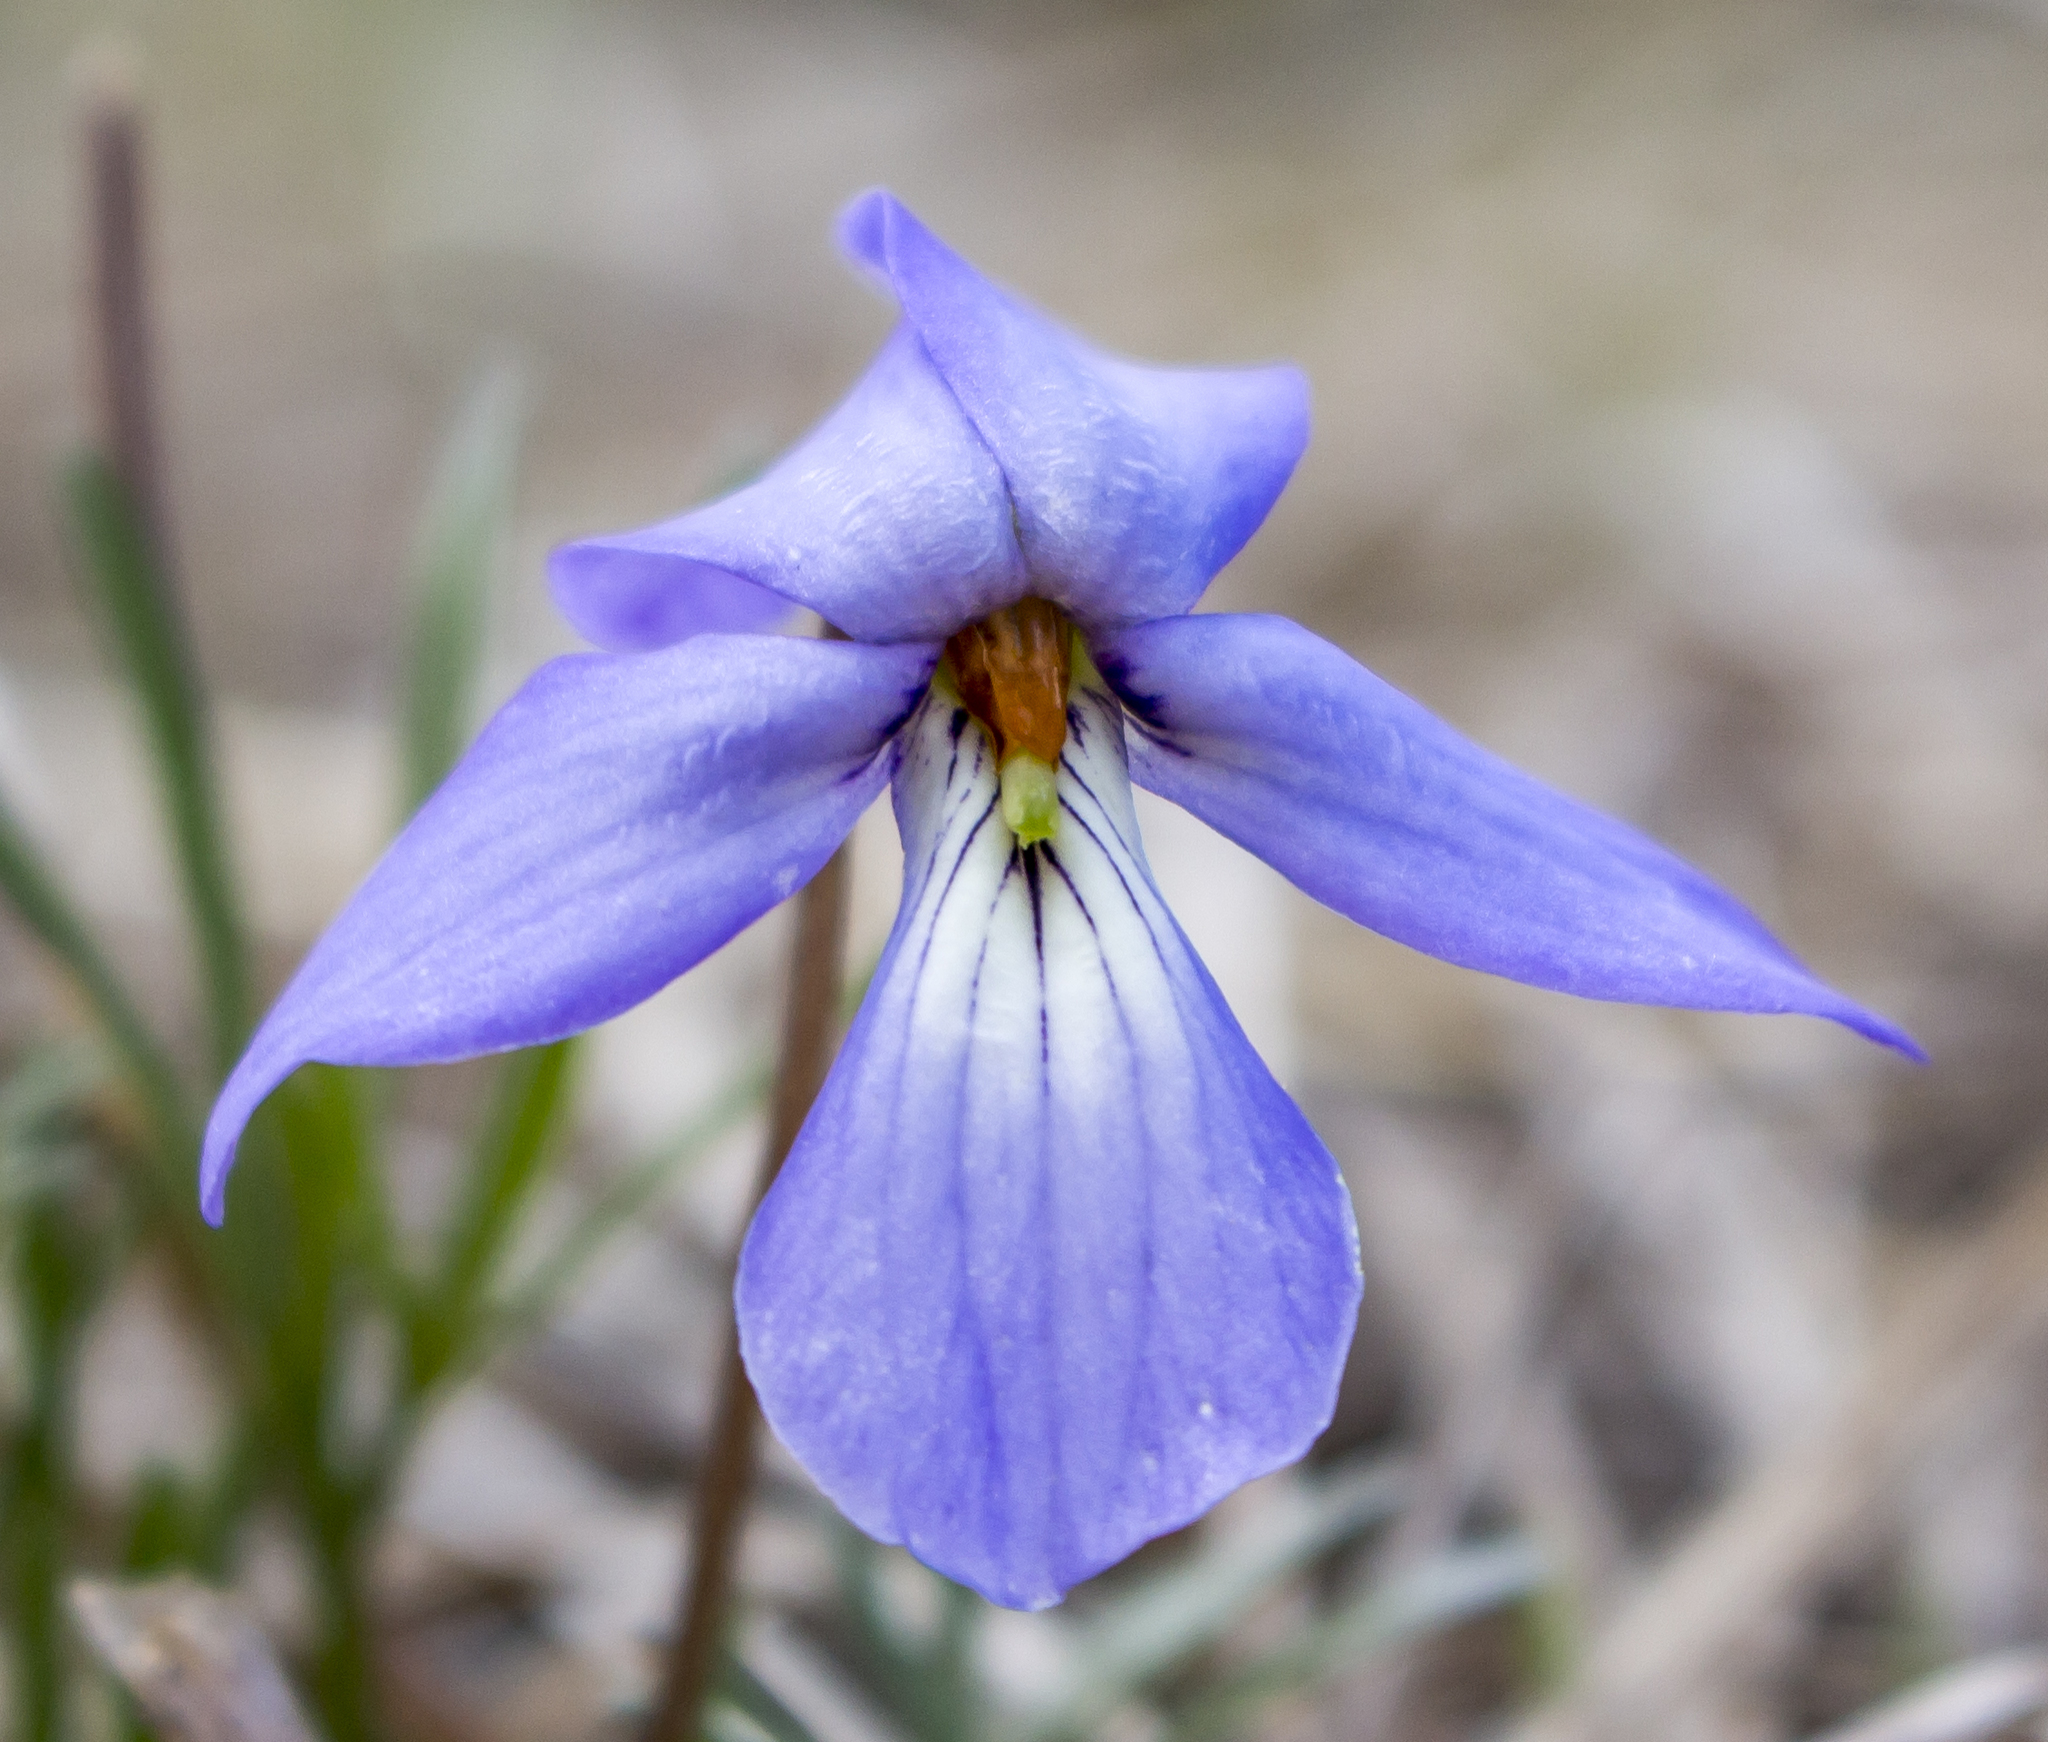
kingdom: Plantae
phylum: Tracheophyta
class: Magnoliopsida
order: Malpighiales
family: Violaceae
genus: Viola
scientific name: Viola pedata
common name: Pansy violet
